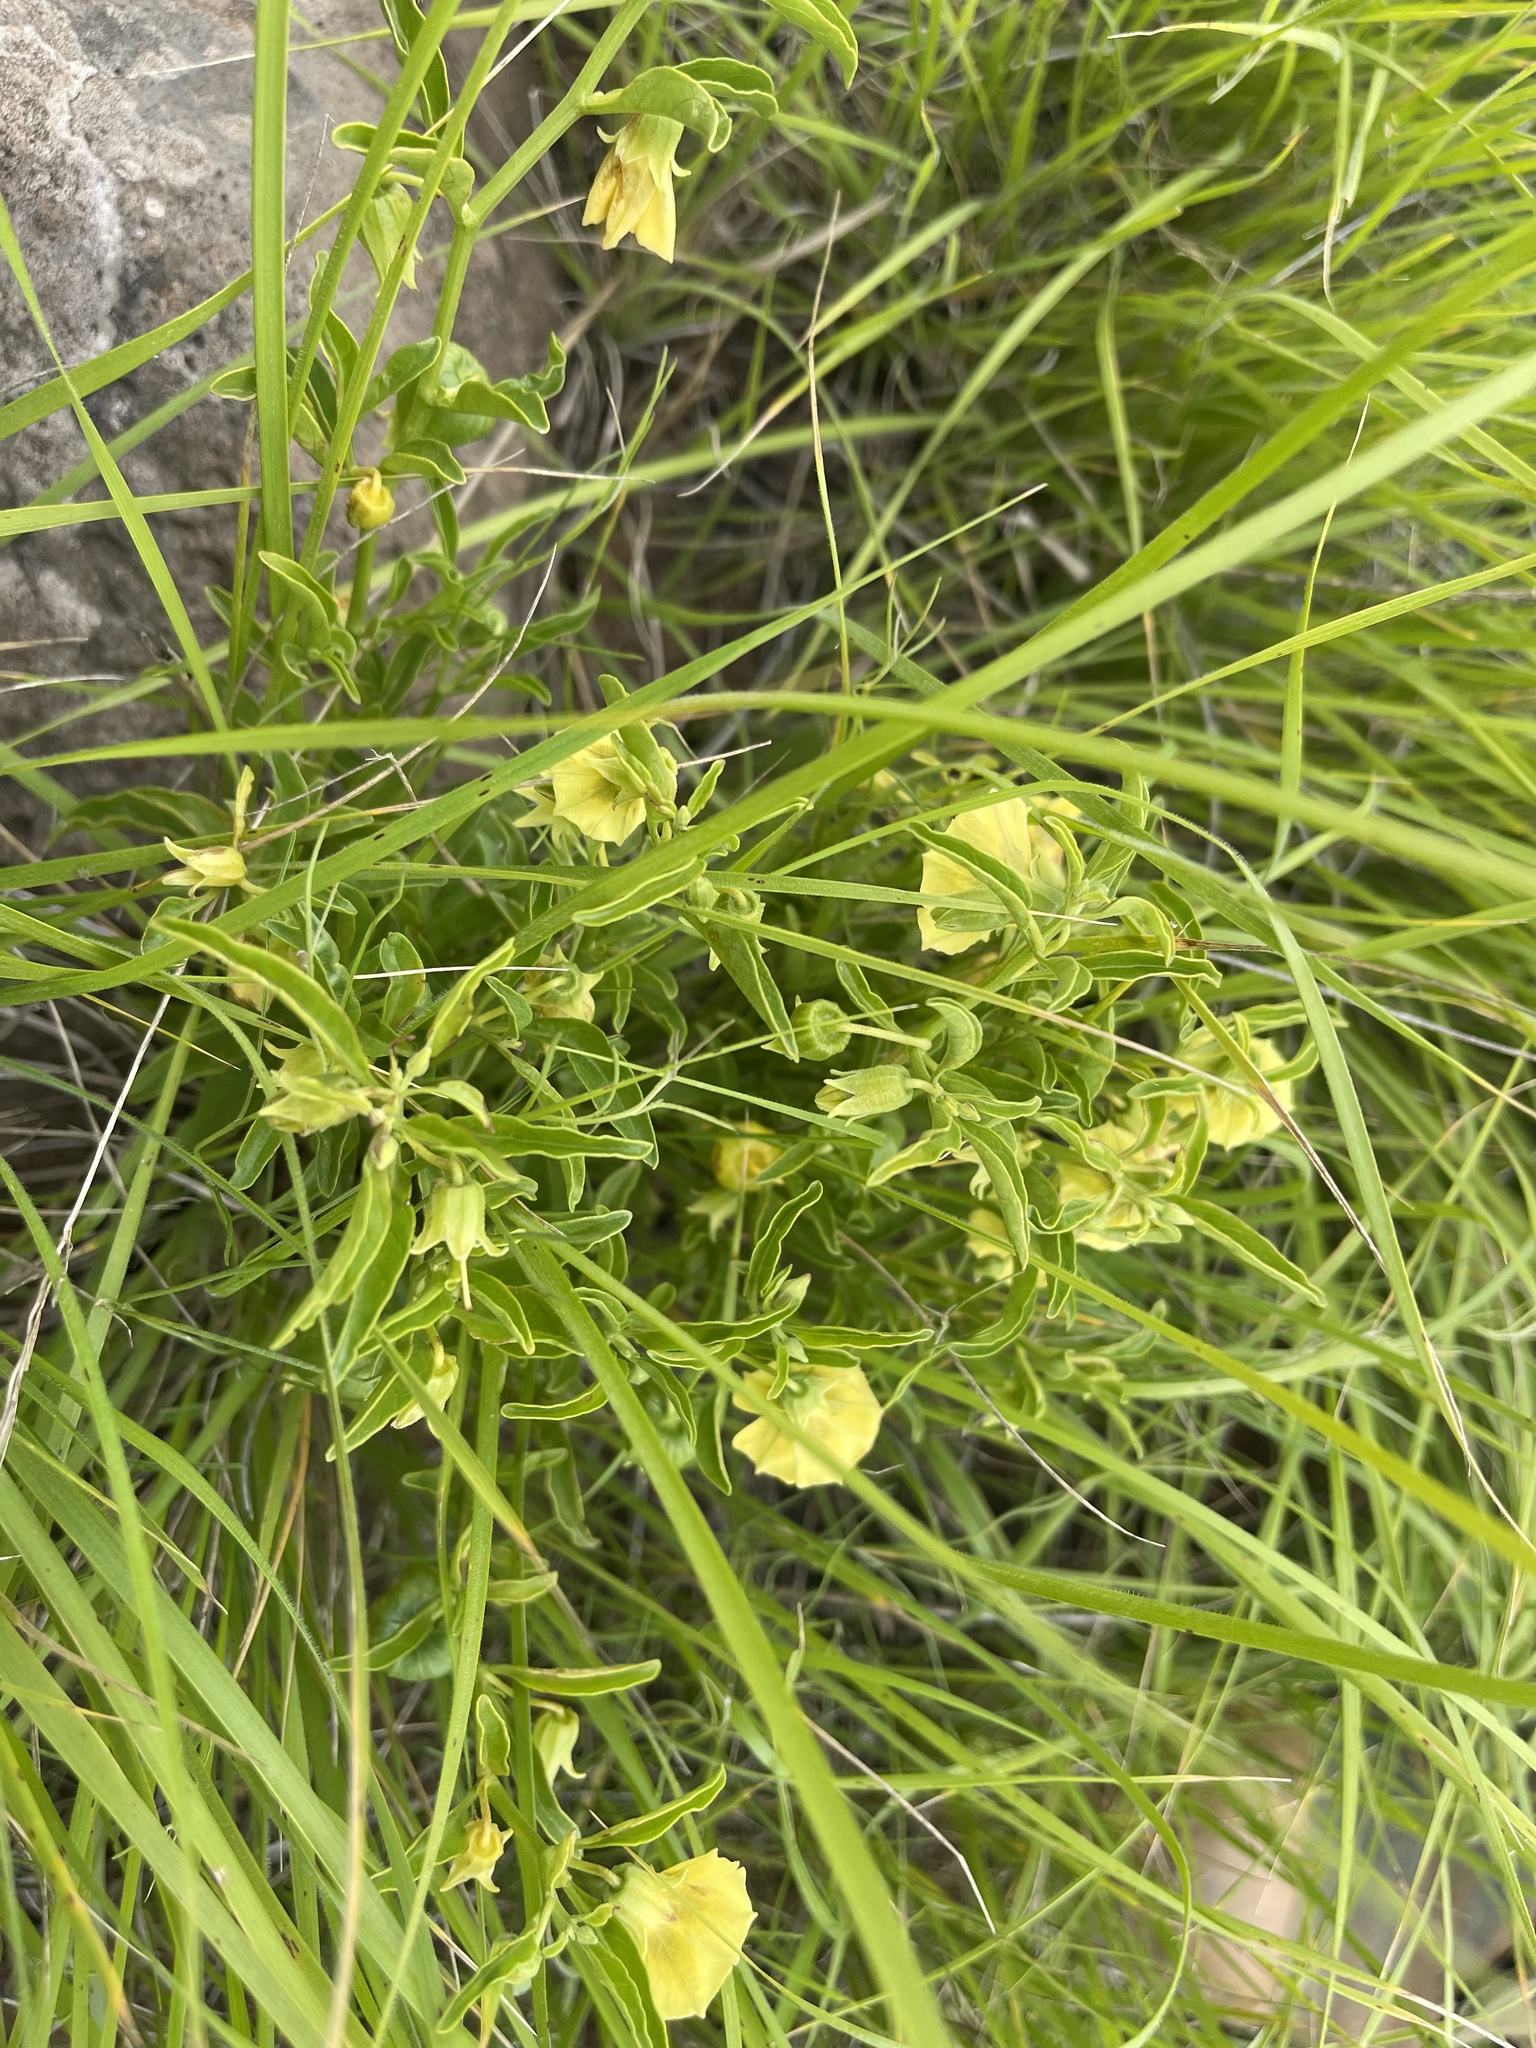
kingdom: Plantae
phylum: Tracheophyta
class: Magnoliopsida
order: Solanales
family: Solanaceae
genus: Physalis
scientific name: Physalis viscosa
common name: Stellate ground-cherry
